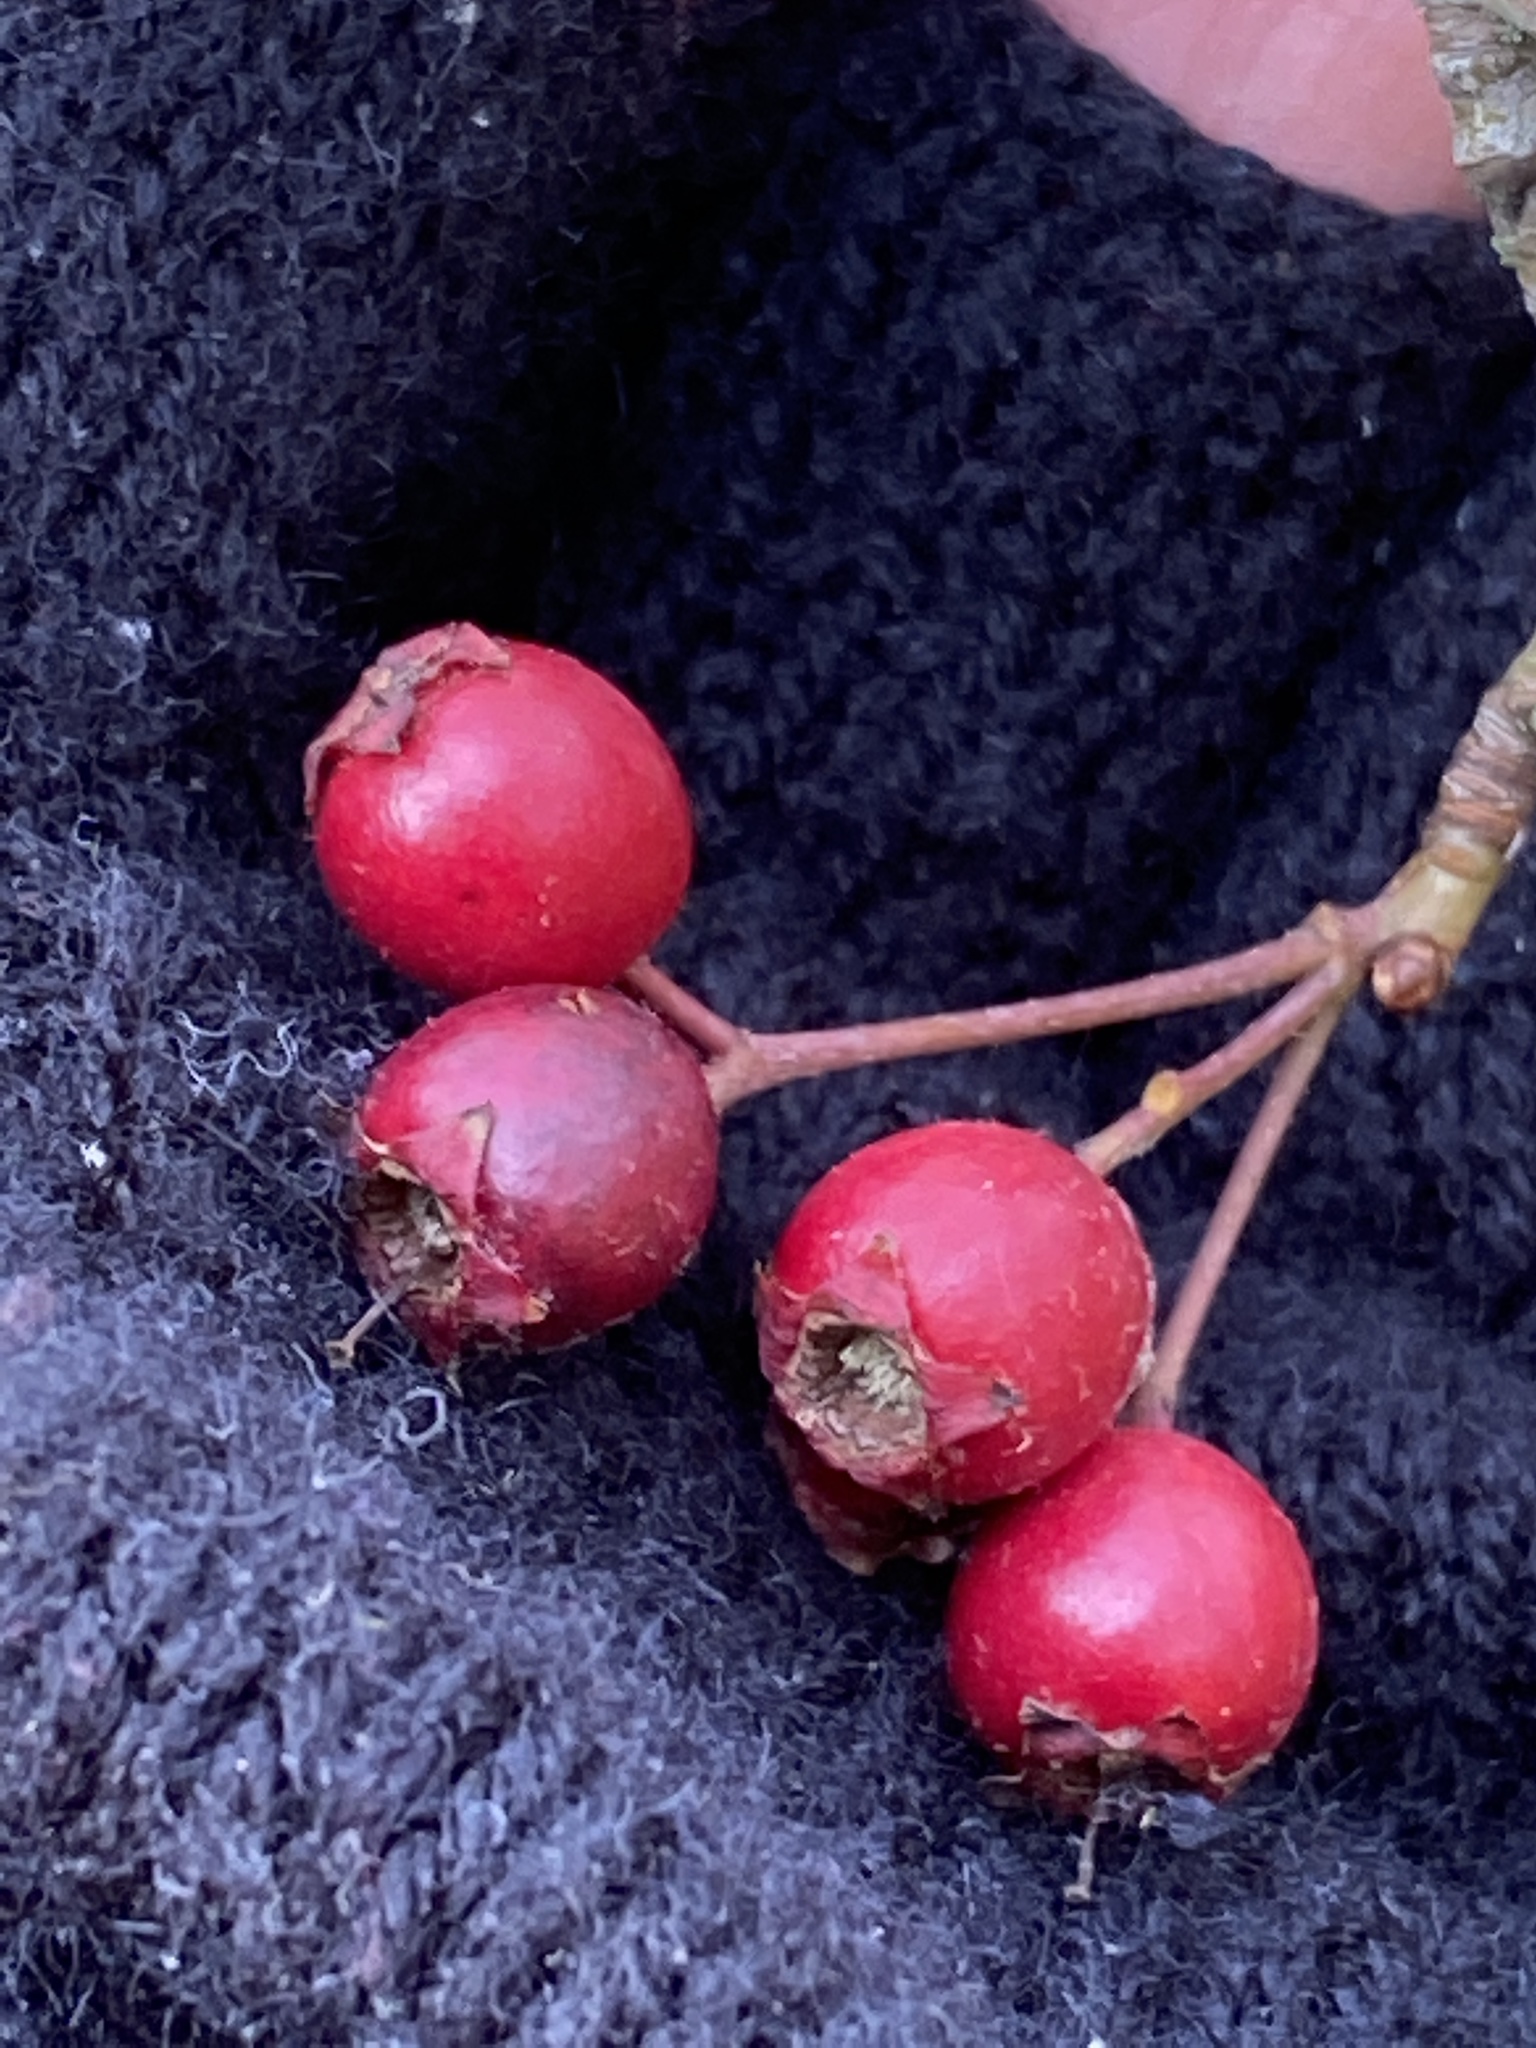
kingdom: Plantae
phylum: Tracheophyta
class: Magnoliopsida
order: Rosales
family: Rosaceae
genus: Crataegus
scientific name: Crataegus monogyna
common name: Hawthorn
